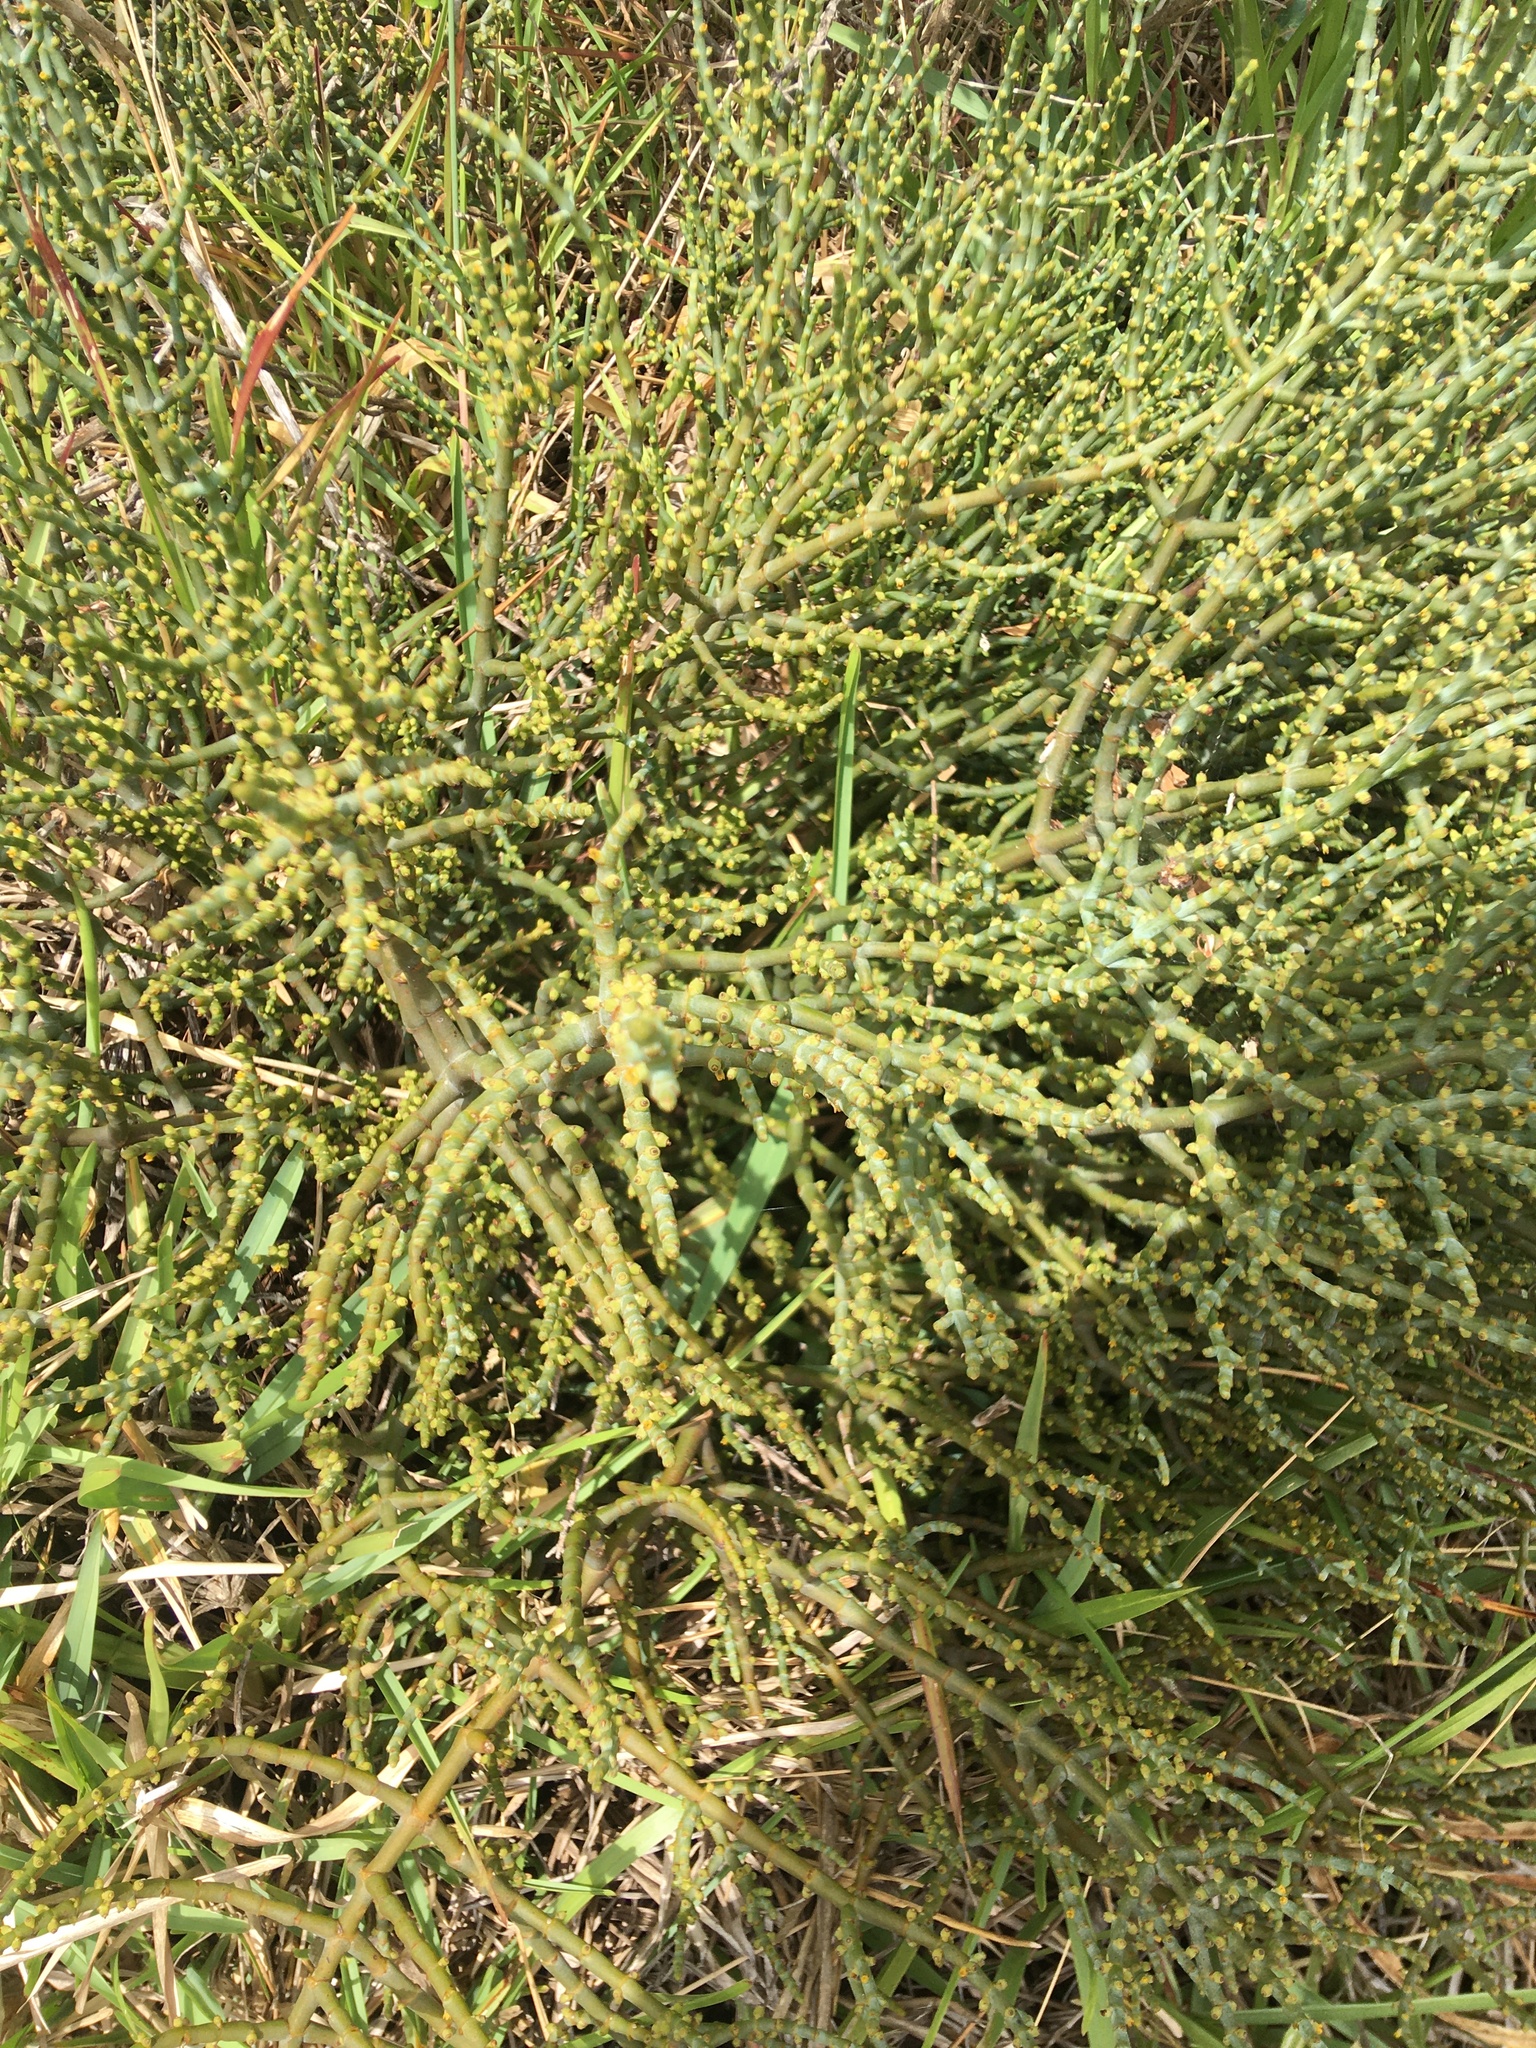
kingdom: Plantae
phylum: Tracheophyta
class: Magnoliopsida
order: Santalales
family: Viscaceae
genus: Viscum
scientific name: Viscum capense
